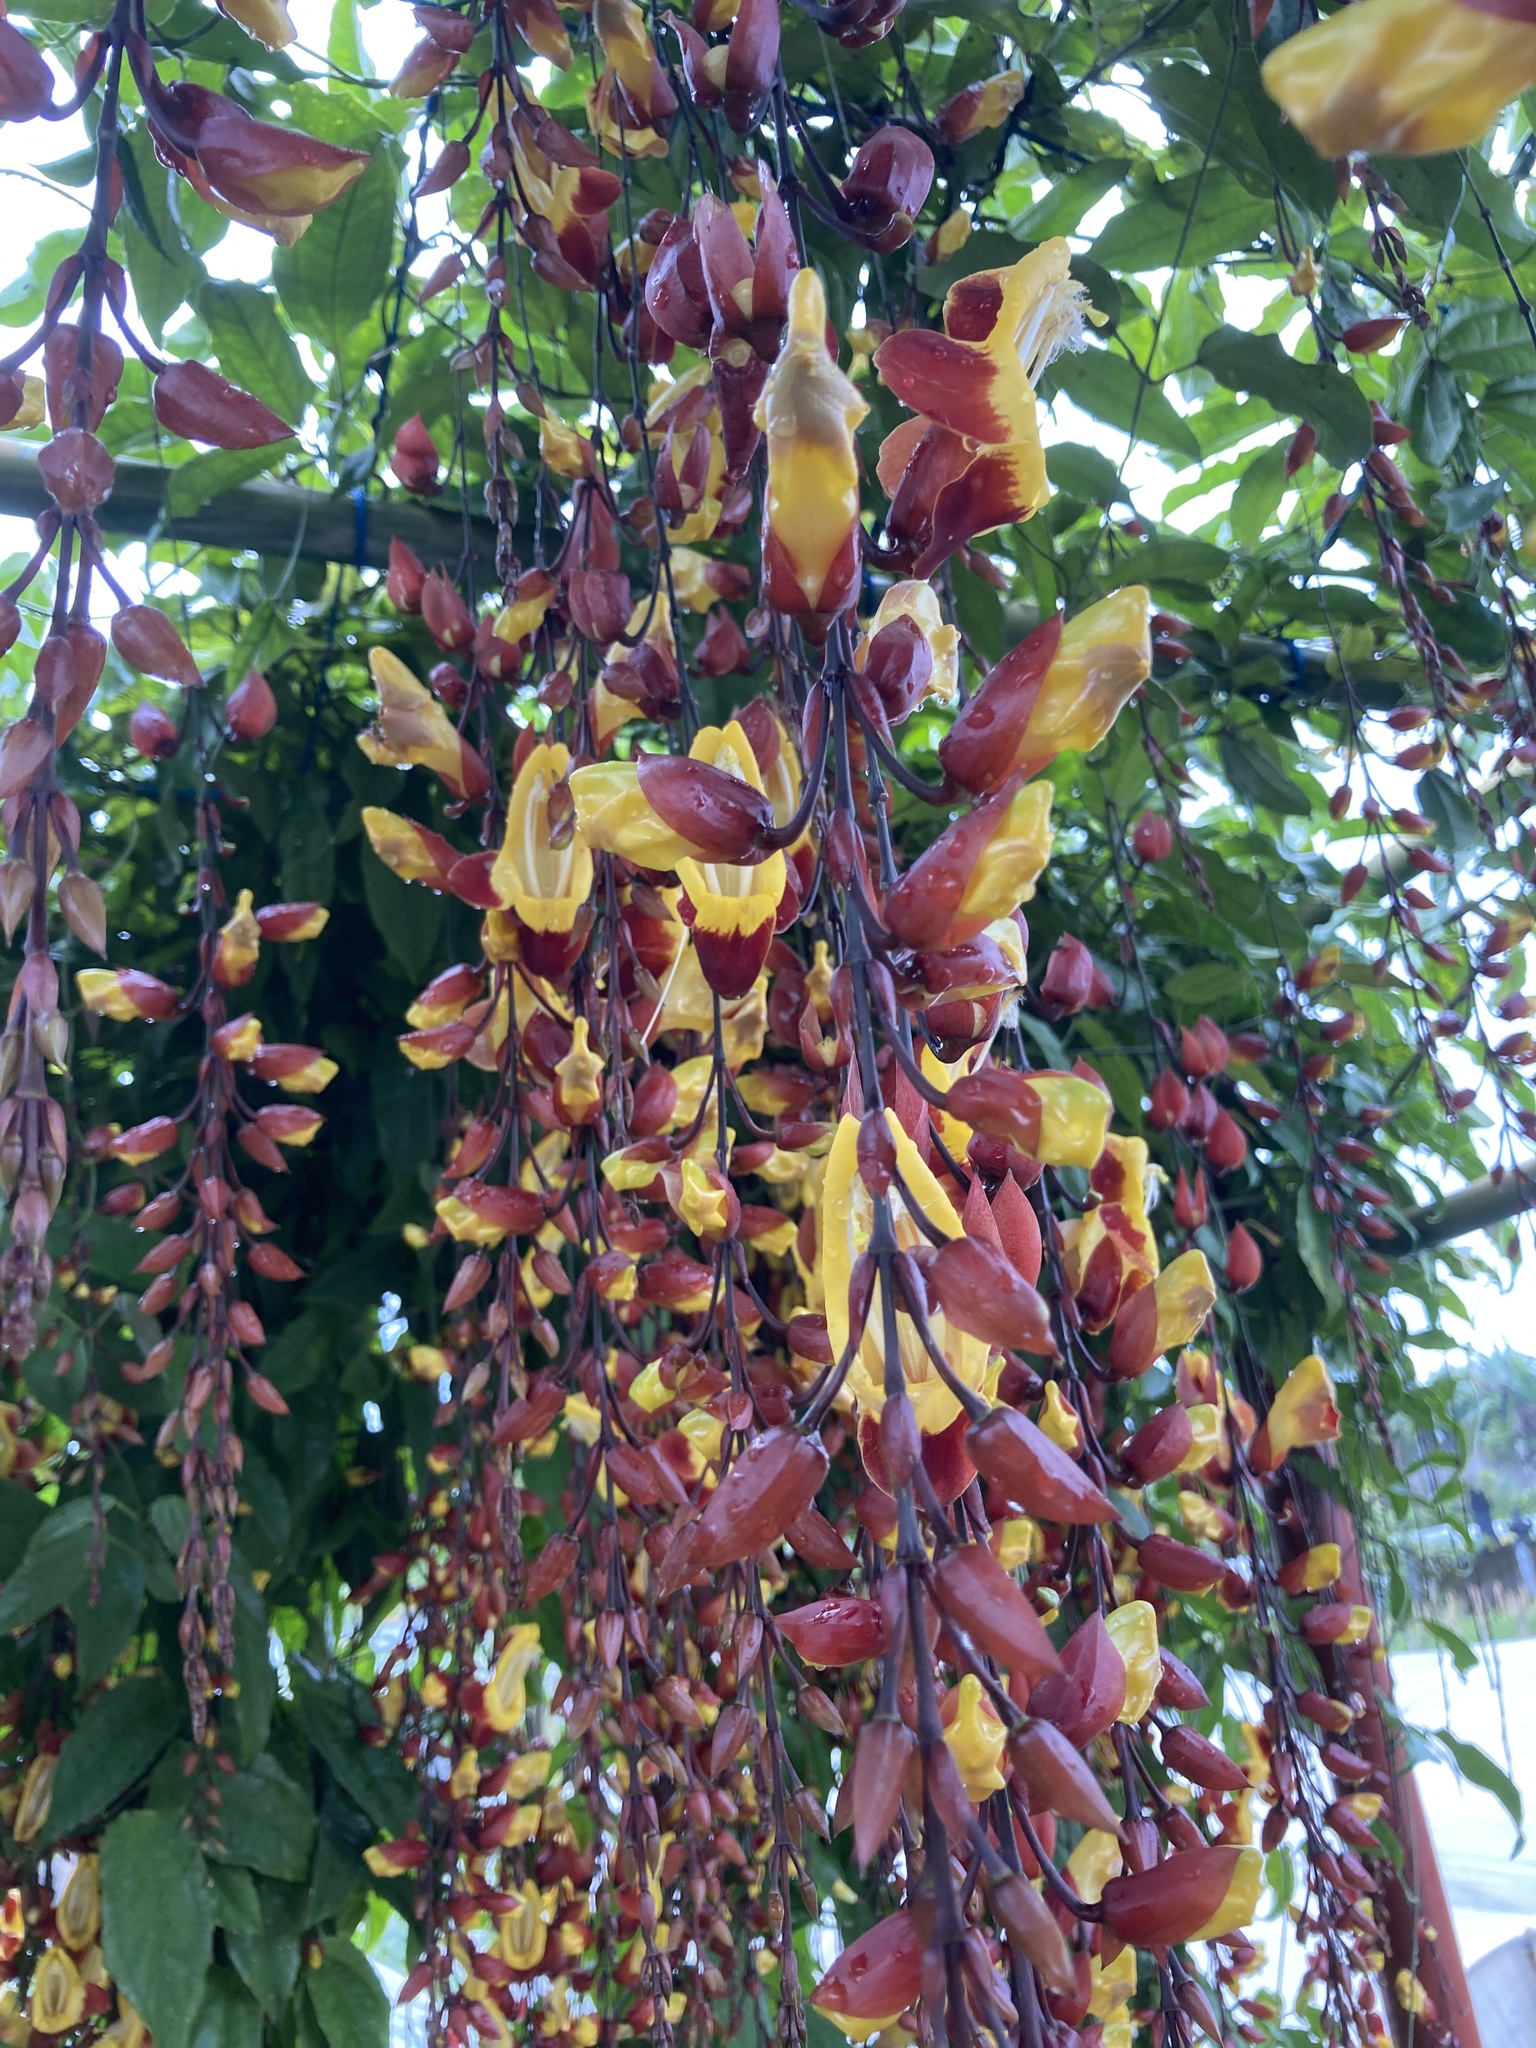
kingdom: Plantae
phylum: Tracheophyta
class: Magnoliopsida
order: Lamiales
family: Acanthaceae
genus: Thunbergia
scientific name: Thunbergia mysorensis
